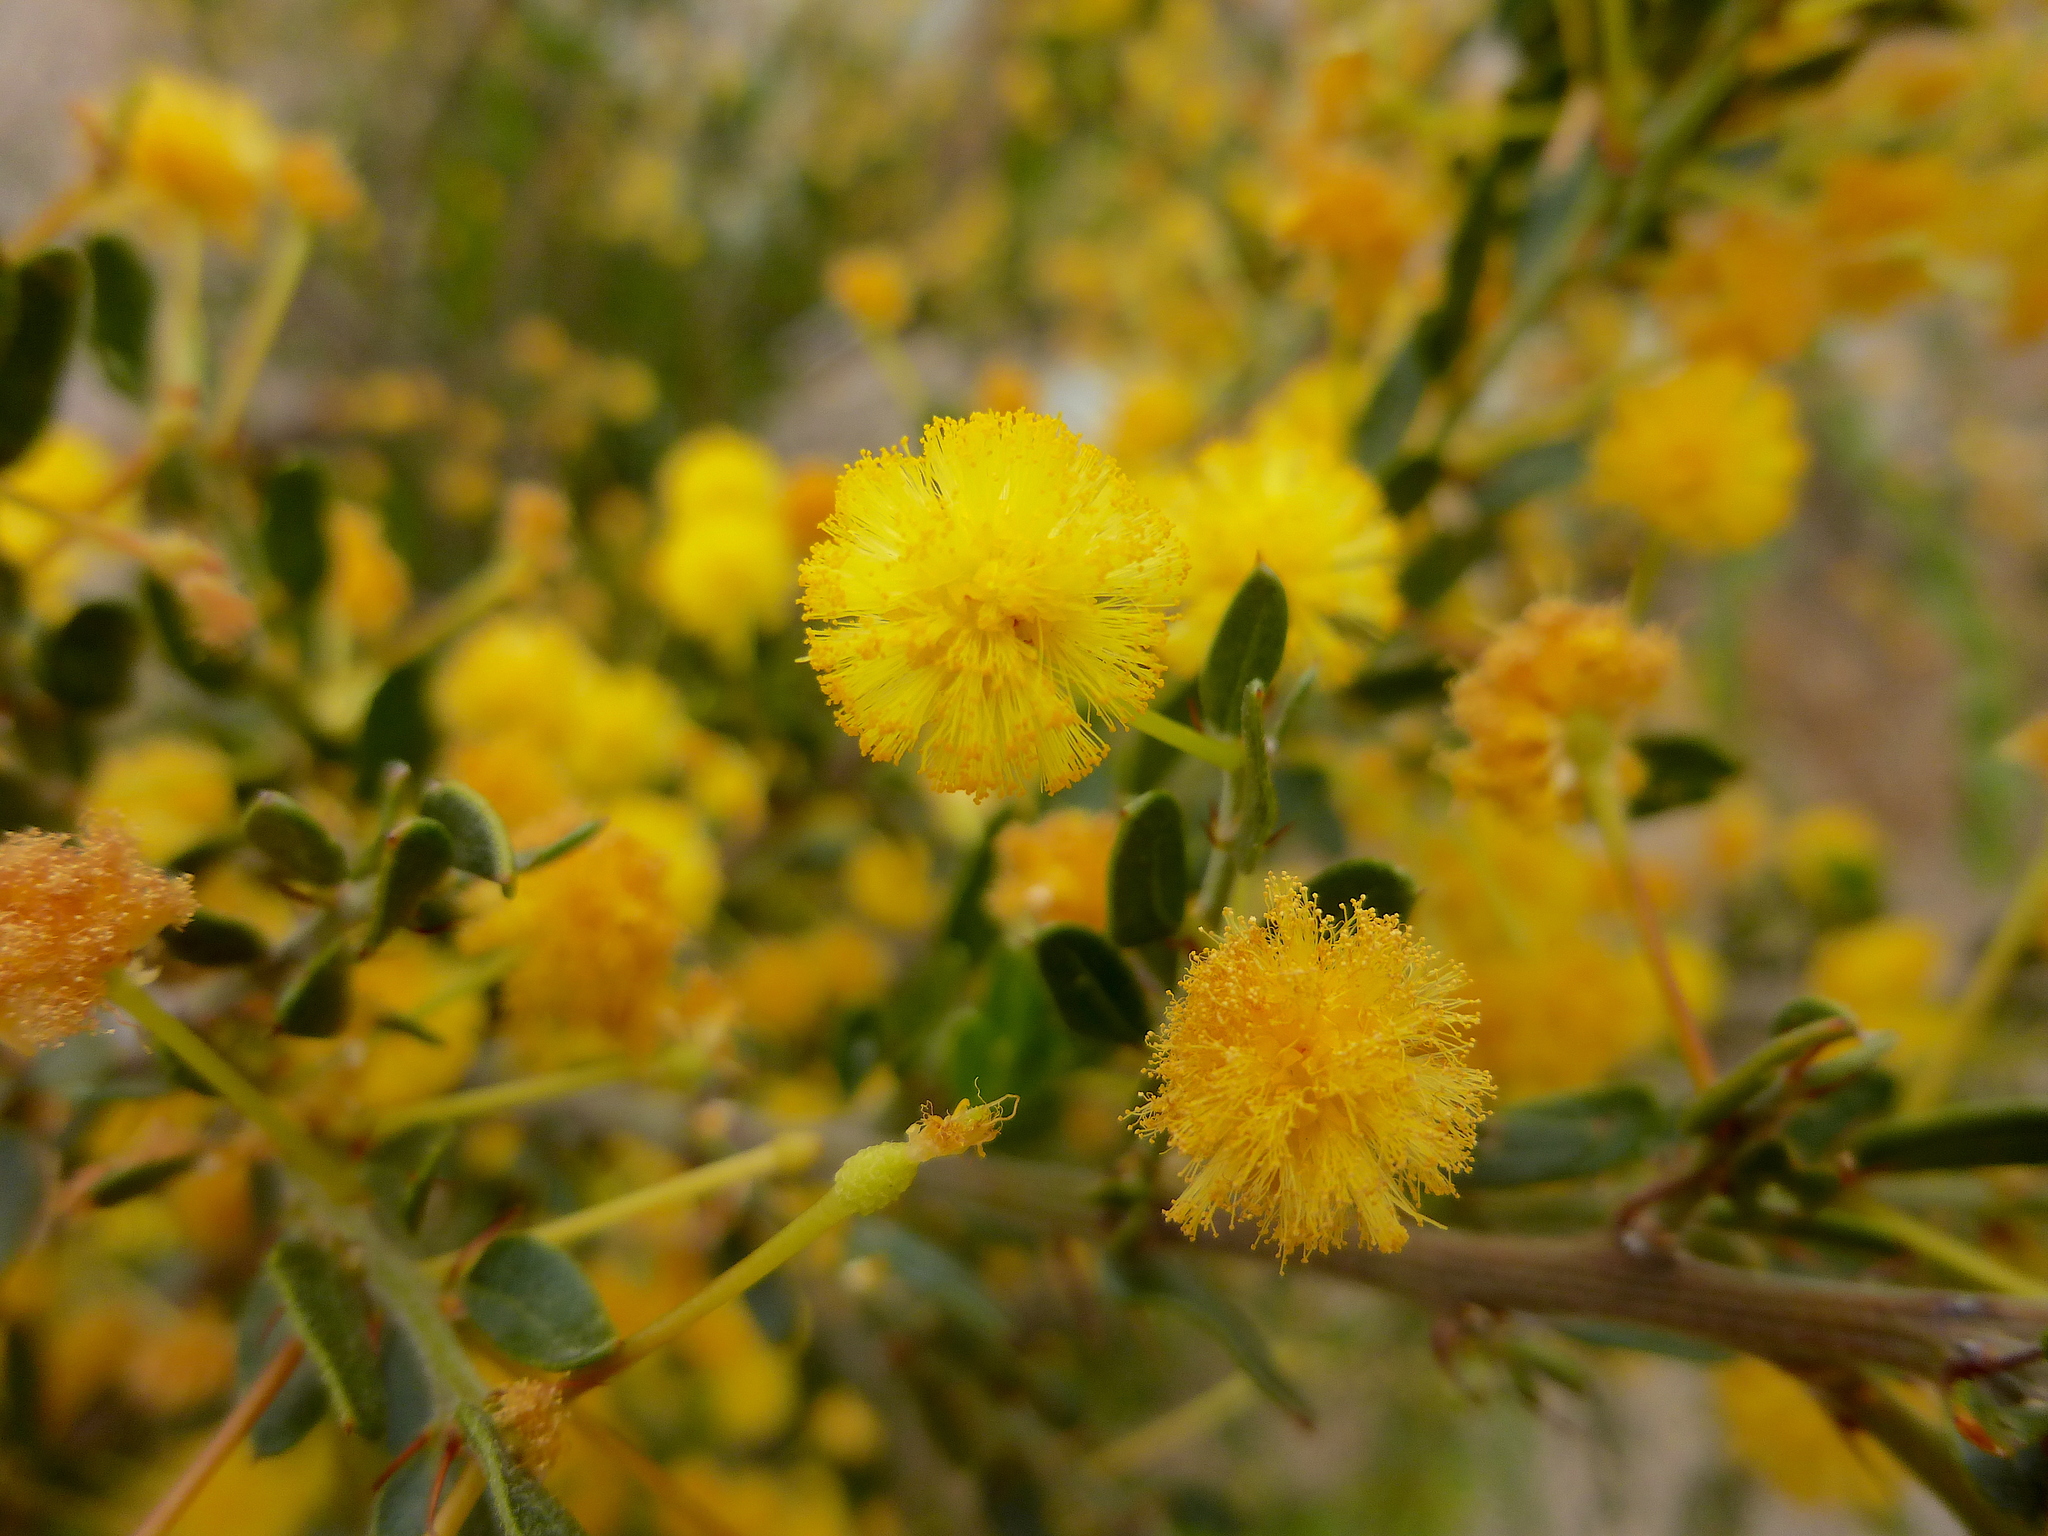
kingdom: Plantae
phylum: Tracheophyta
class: Magnoliopsida
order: Fabales
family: Fabaceae
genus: Acacia
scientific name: Acacia paradoxa
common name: Paradox acacia
